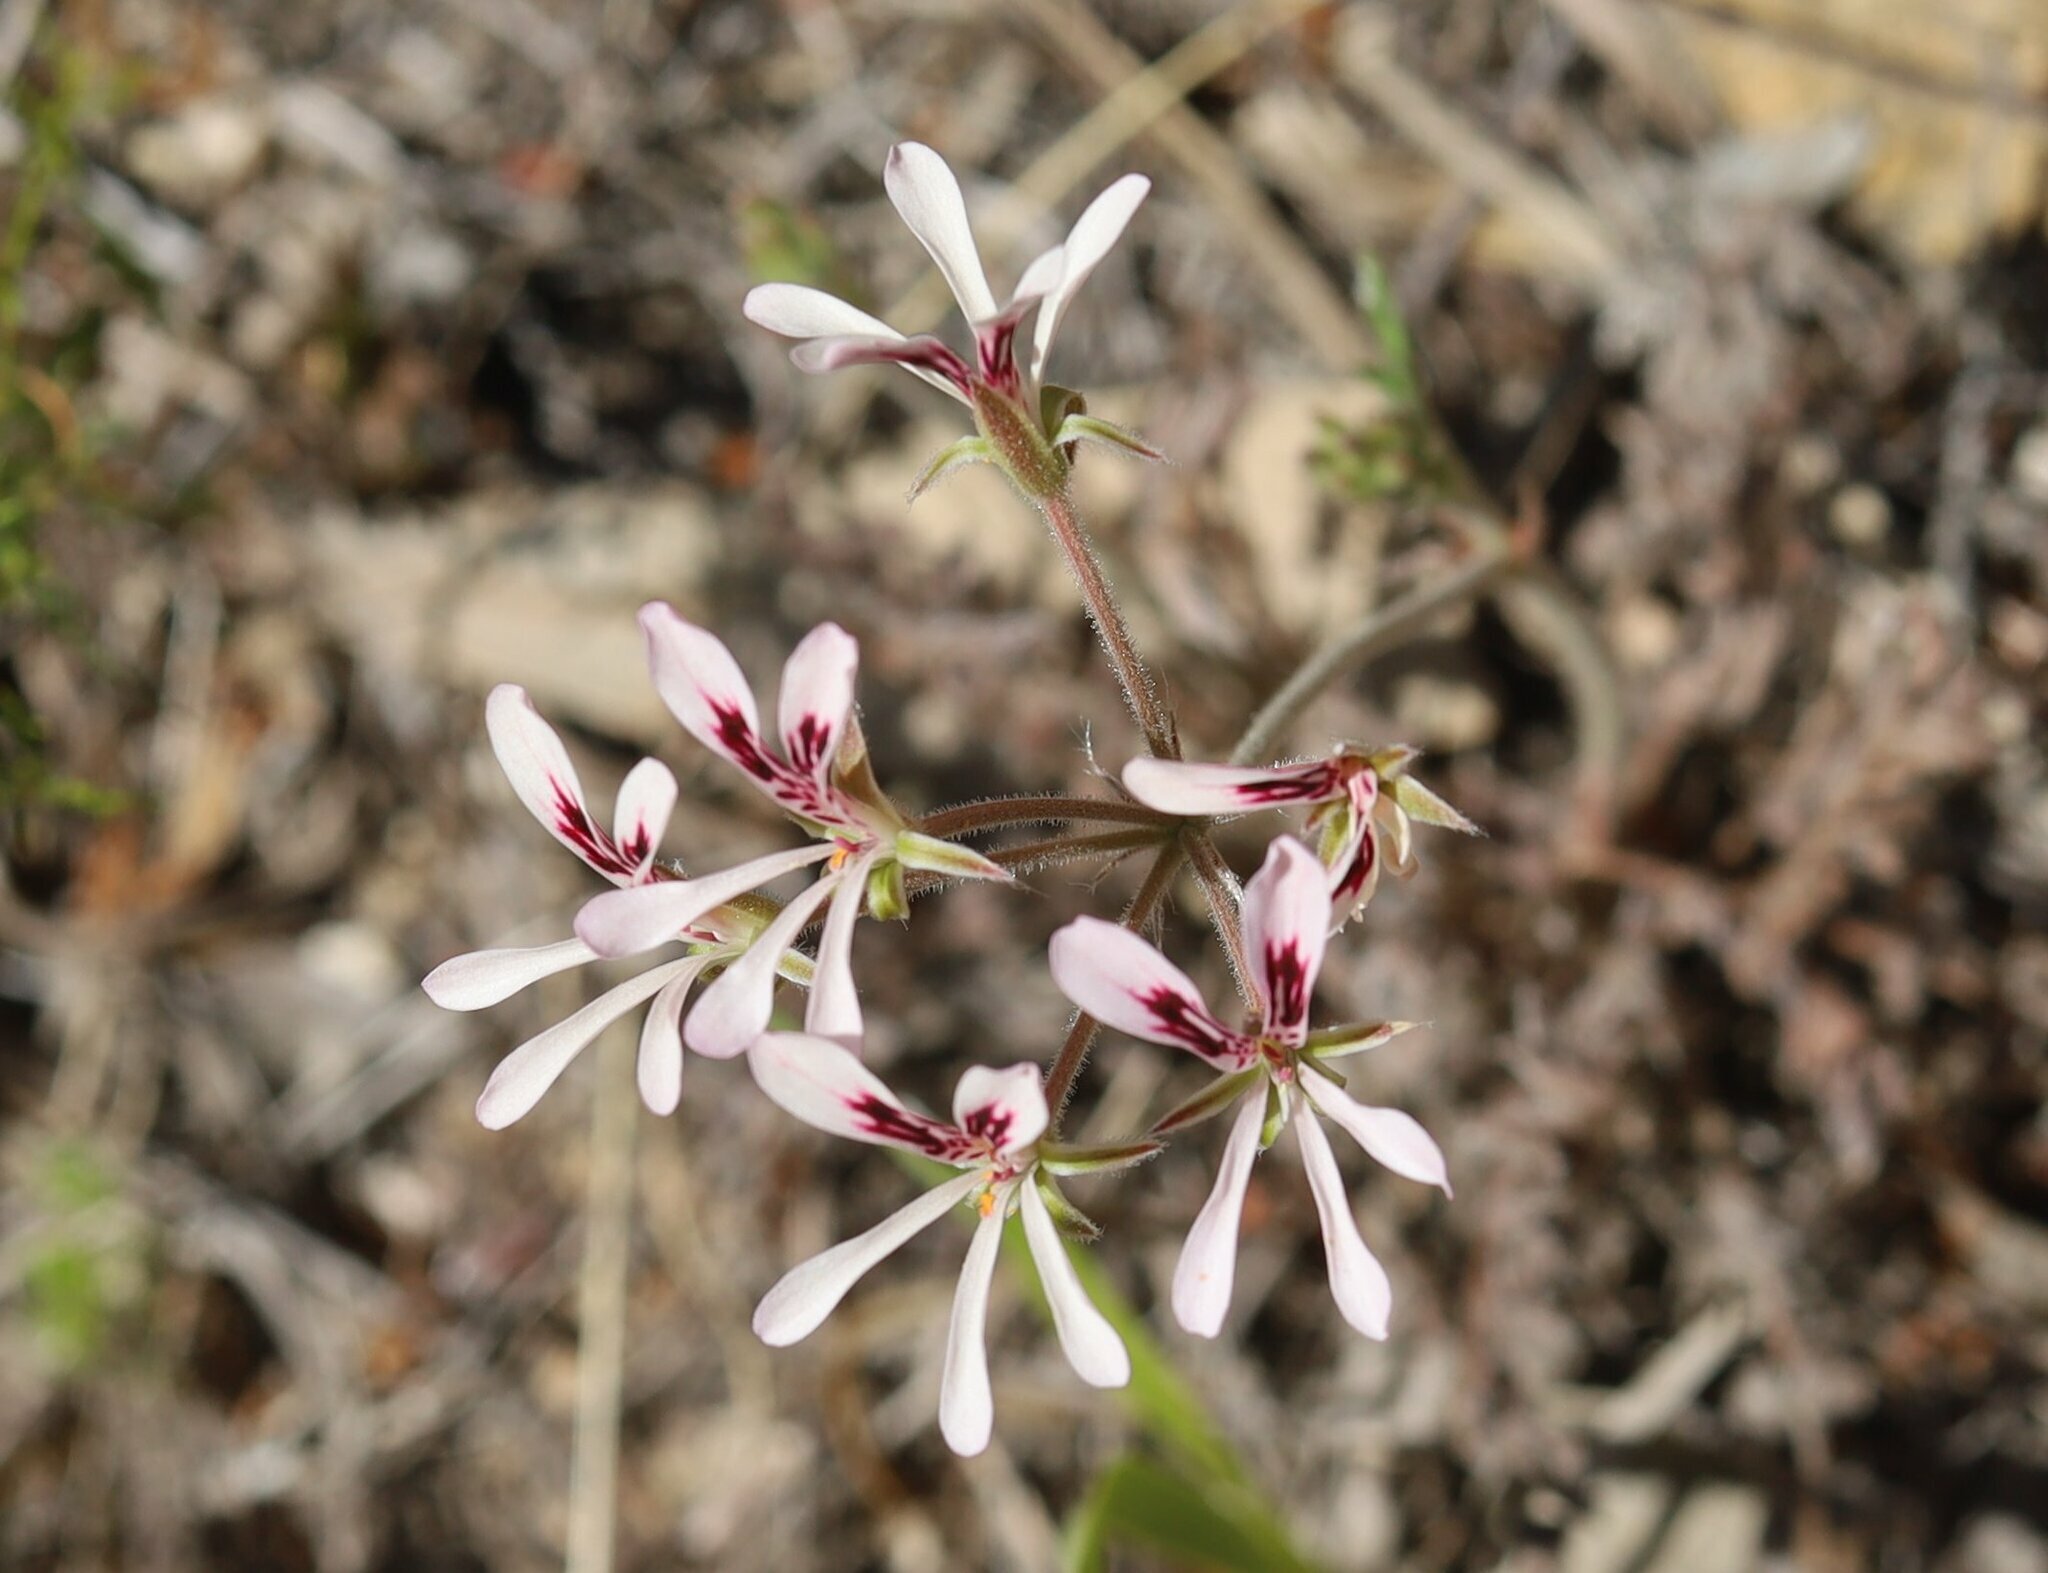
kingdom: Plantae
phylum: Tracheophyta
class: Magnoliopsida
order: Geraniales
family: Geraniaceae
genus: Pelargonium
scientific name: Pelargonium pinnatum
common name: Pinnated pelargonium
